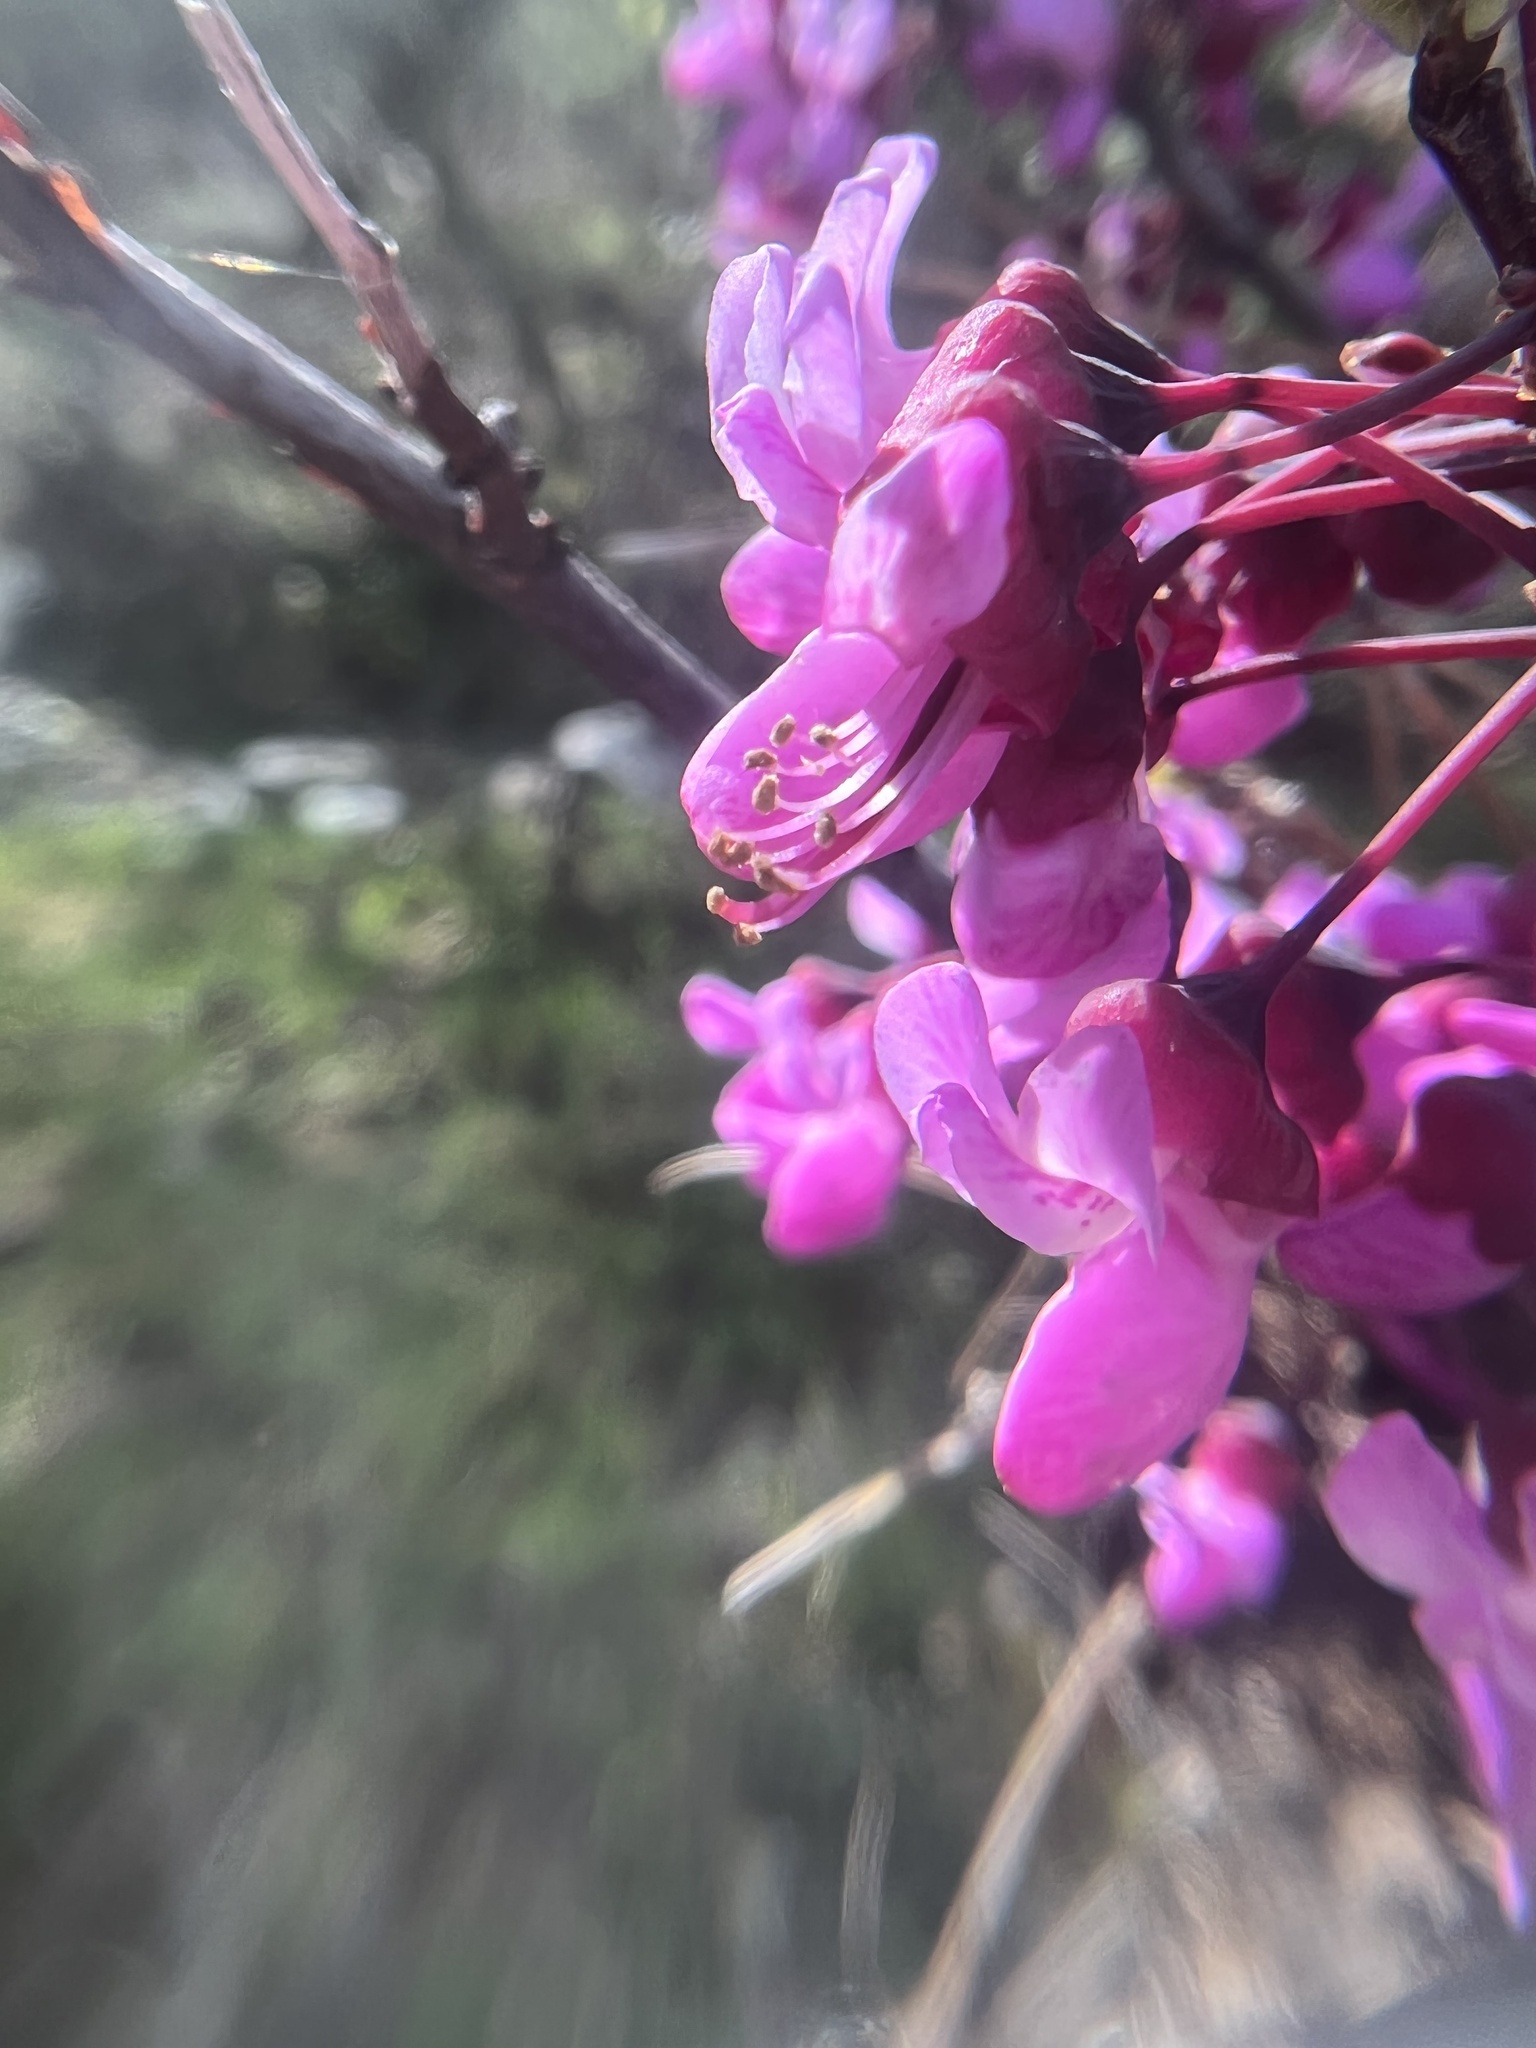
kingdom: Plantae
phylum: Tracheophyta
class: Magnoliopsida
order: Fabales
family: Fabaceae
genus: Cercis
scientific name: Cercis occidentalis
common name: California redbud
